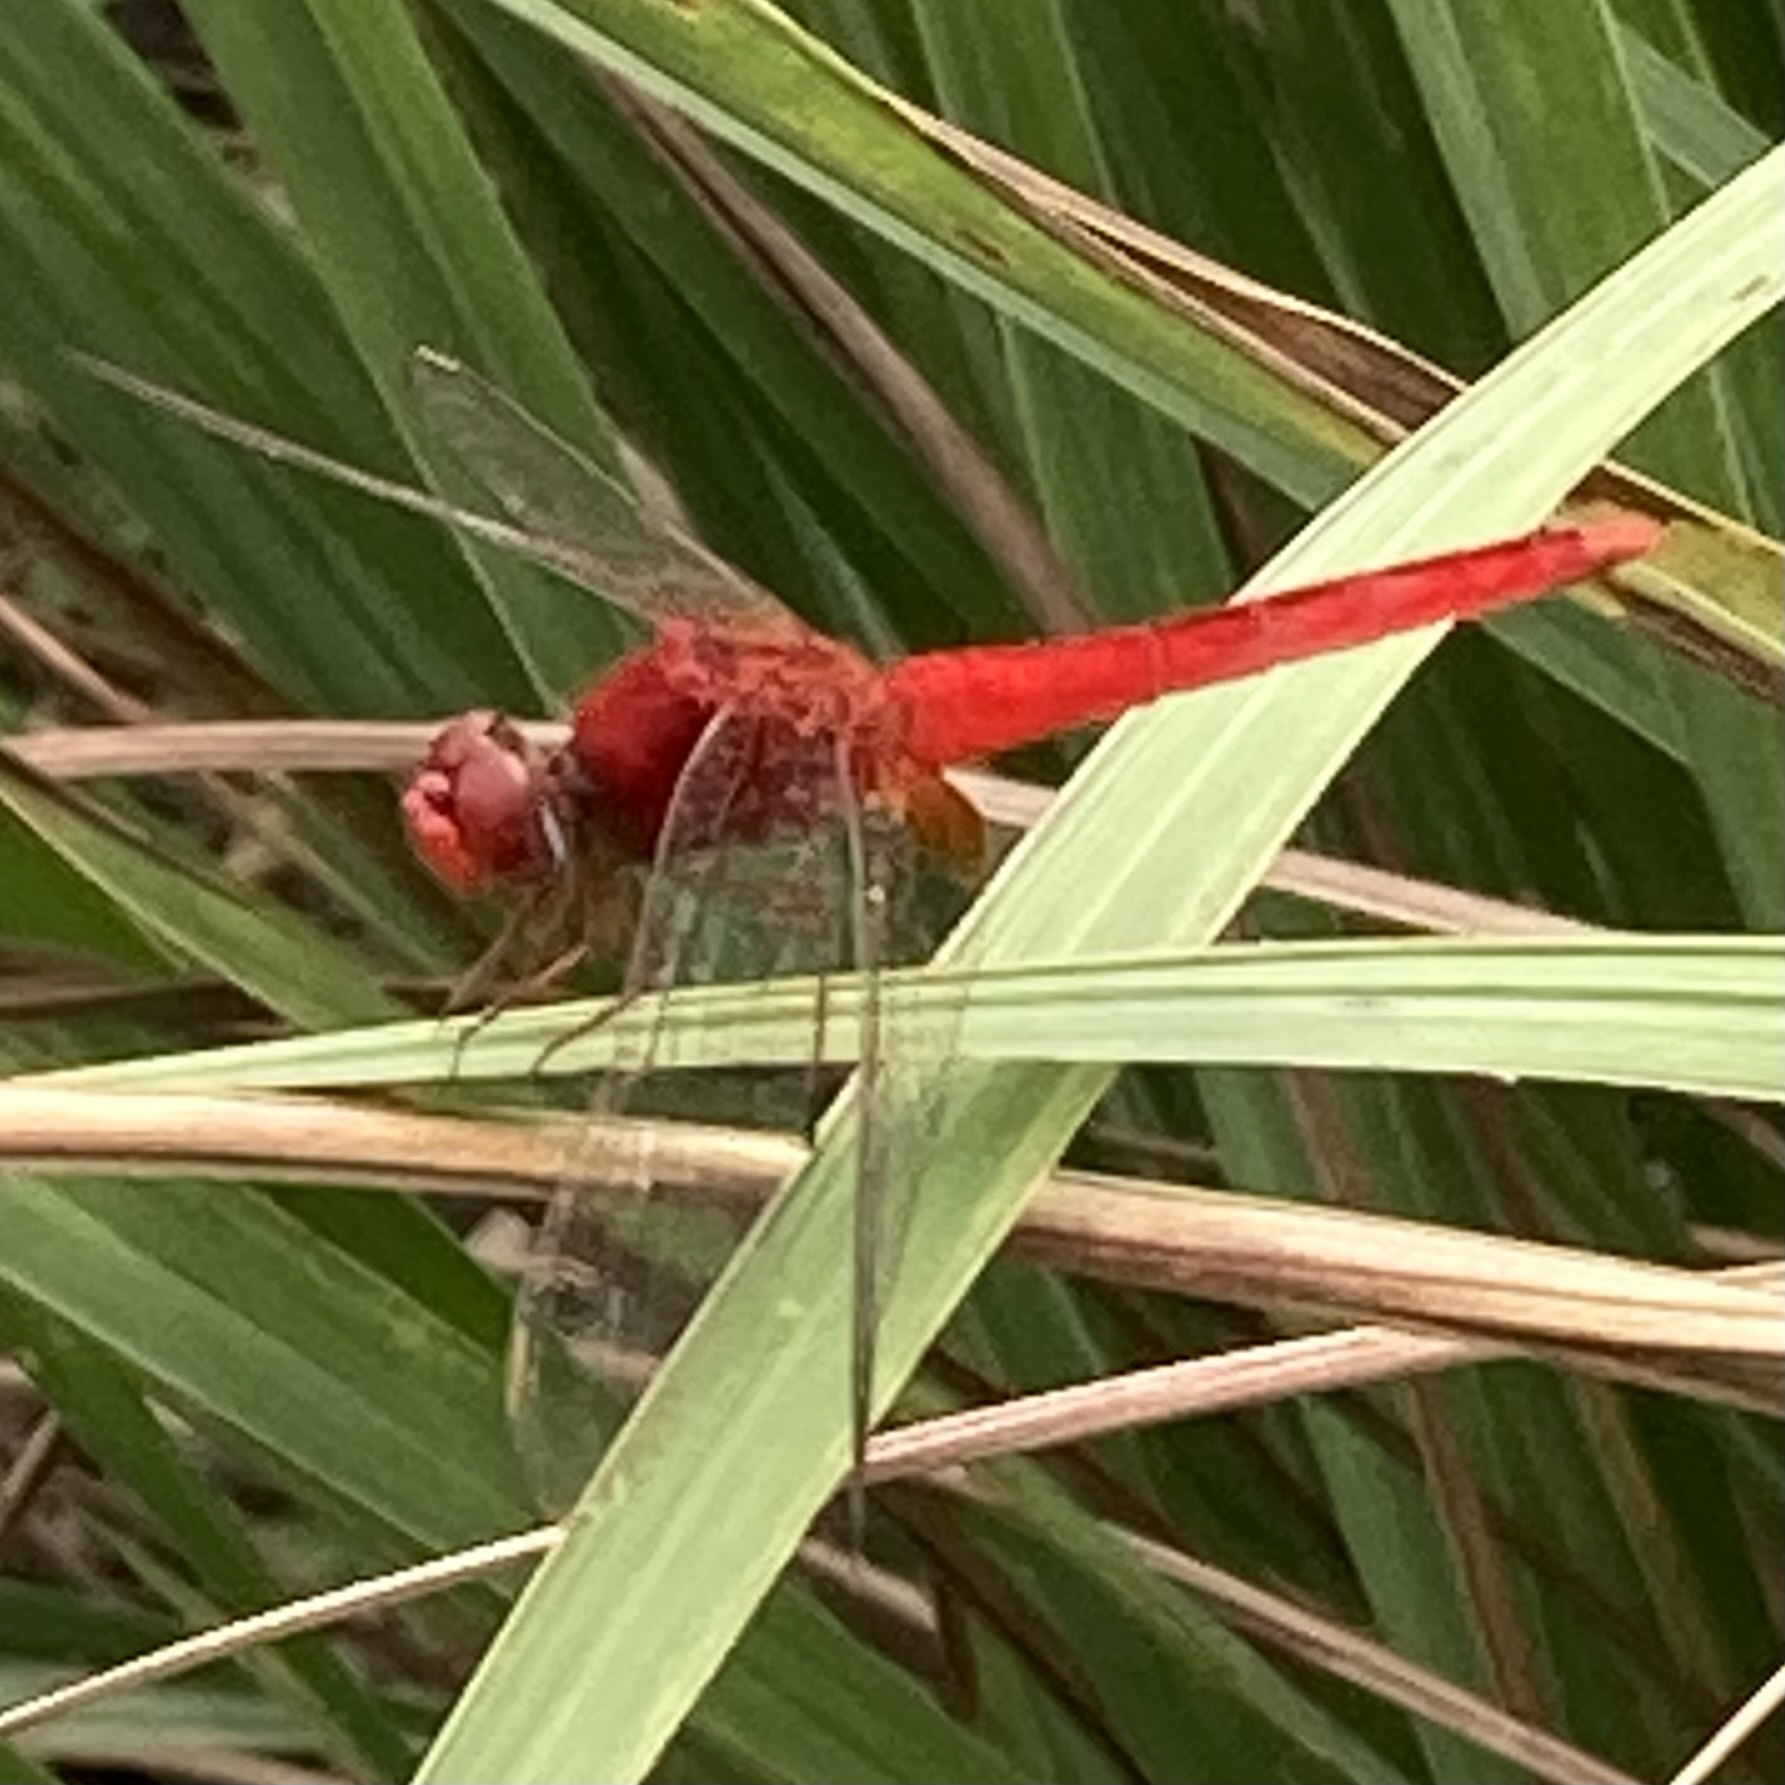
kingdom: Animalia
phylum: Arthropoda
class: Insecta
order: Odonata
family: Libellulidae
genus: Crocothemis
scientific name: Crocothemis servilia
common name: Scarlet skimmer
